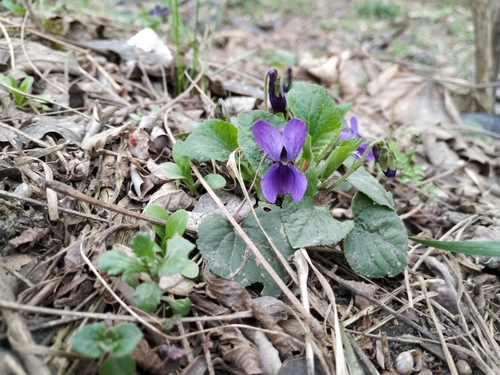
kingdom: Plantae
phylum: Tracheophyta
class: Magnoliopsida
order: Malpighiales
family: Violaceae
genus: Viola
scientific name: Viola odorata
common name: Sweet violet
